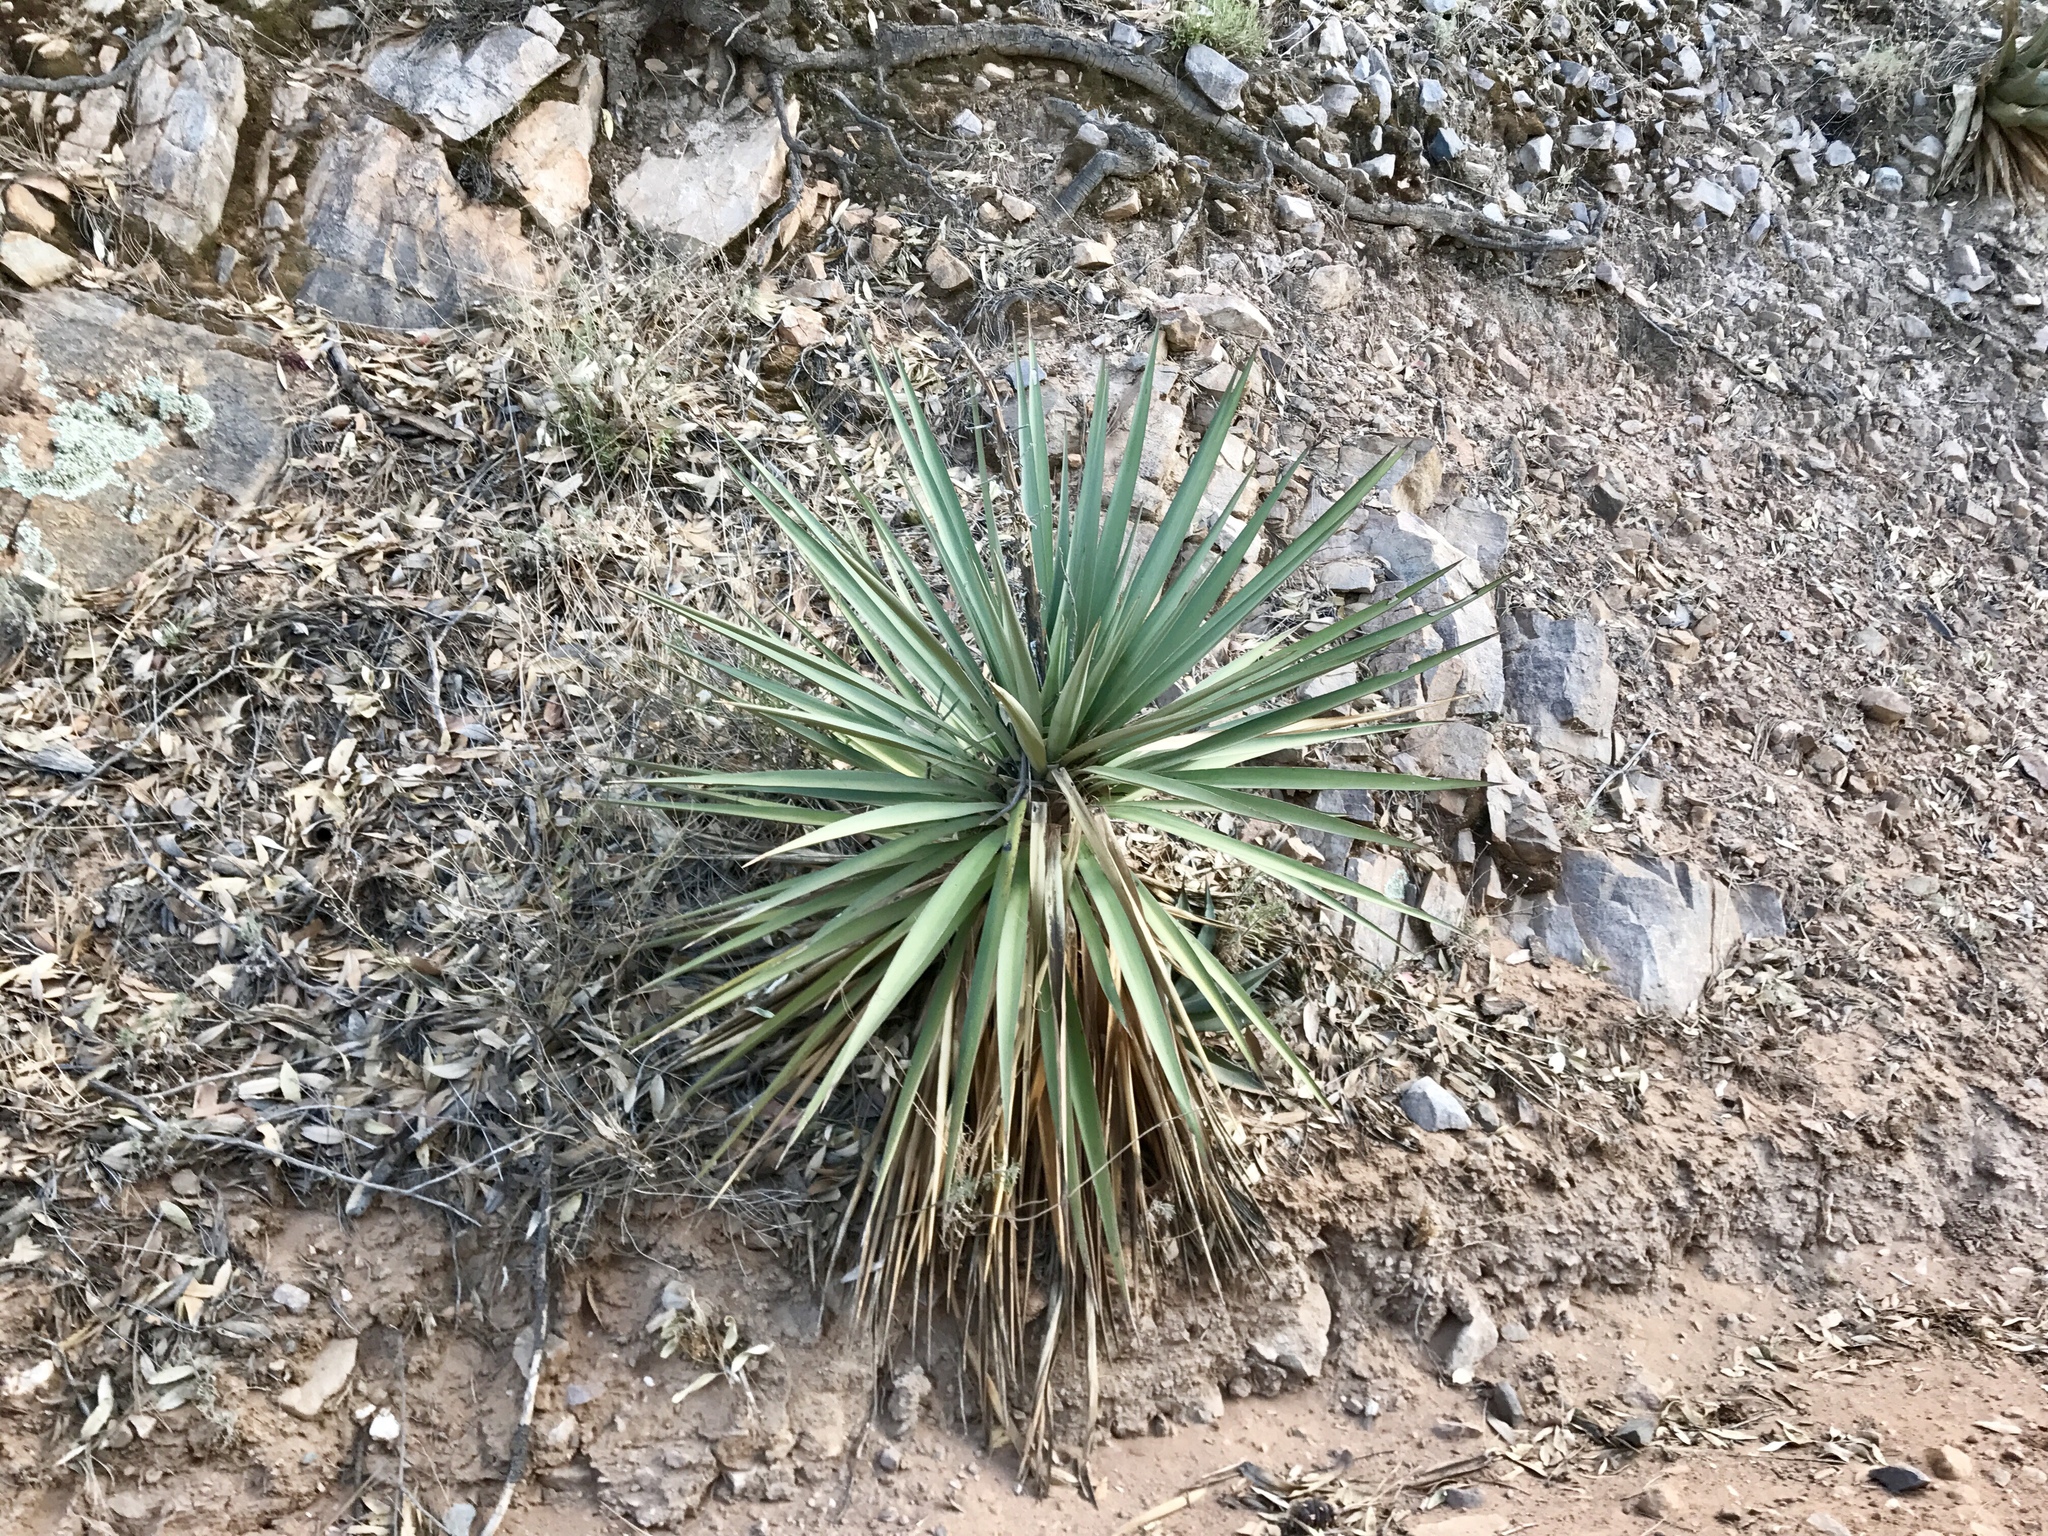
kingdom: Plantae
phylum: Tracheophyta
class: Liliopsida
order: Asparagales
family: Asparagaceae
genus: Yucca
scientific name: Yucca madrensis
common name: Hoary yucca
